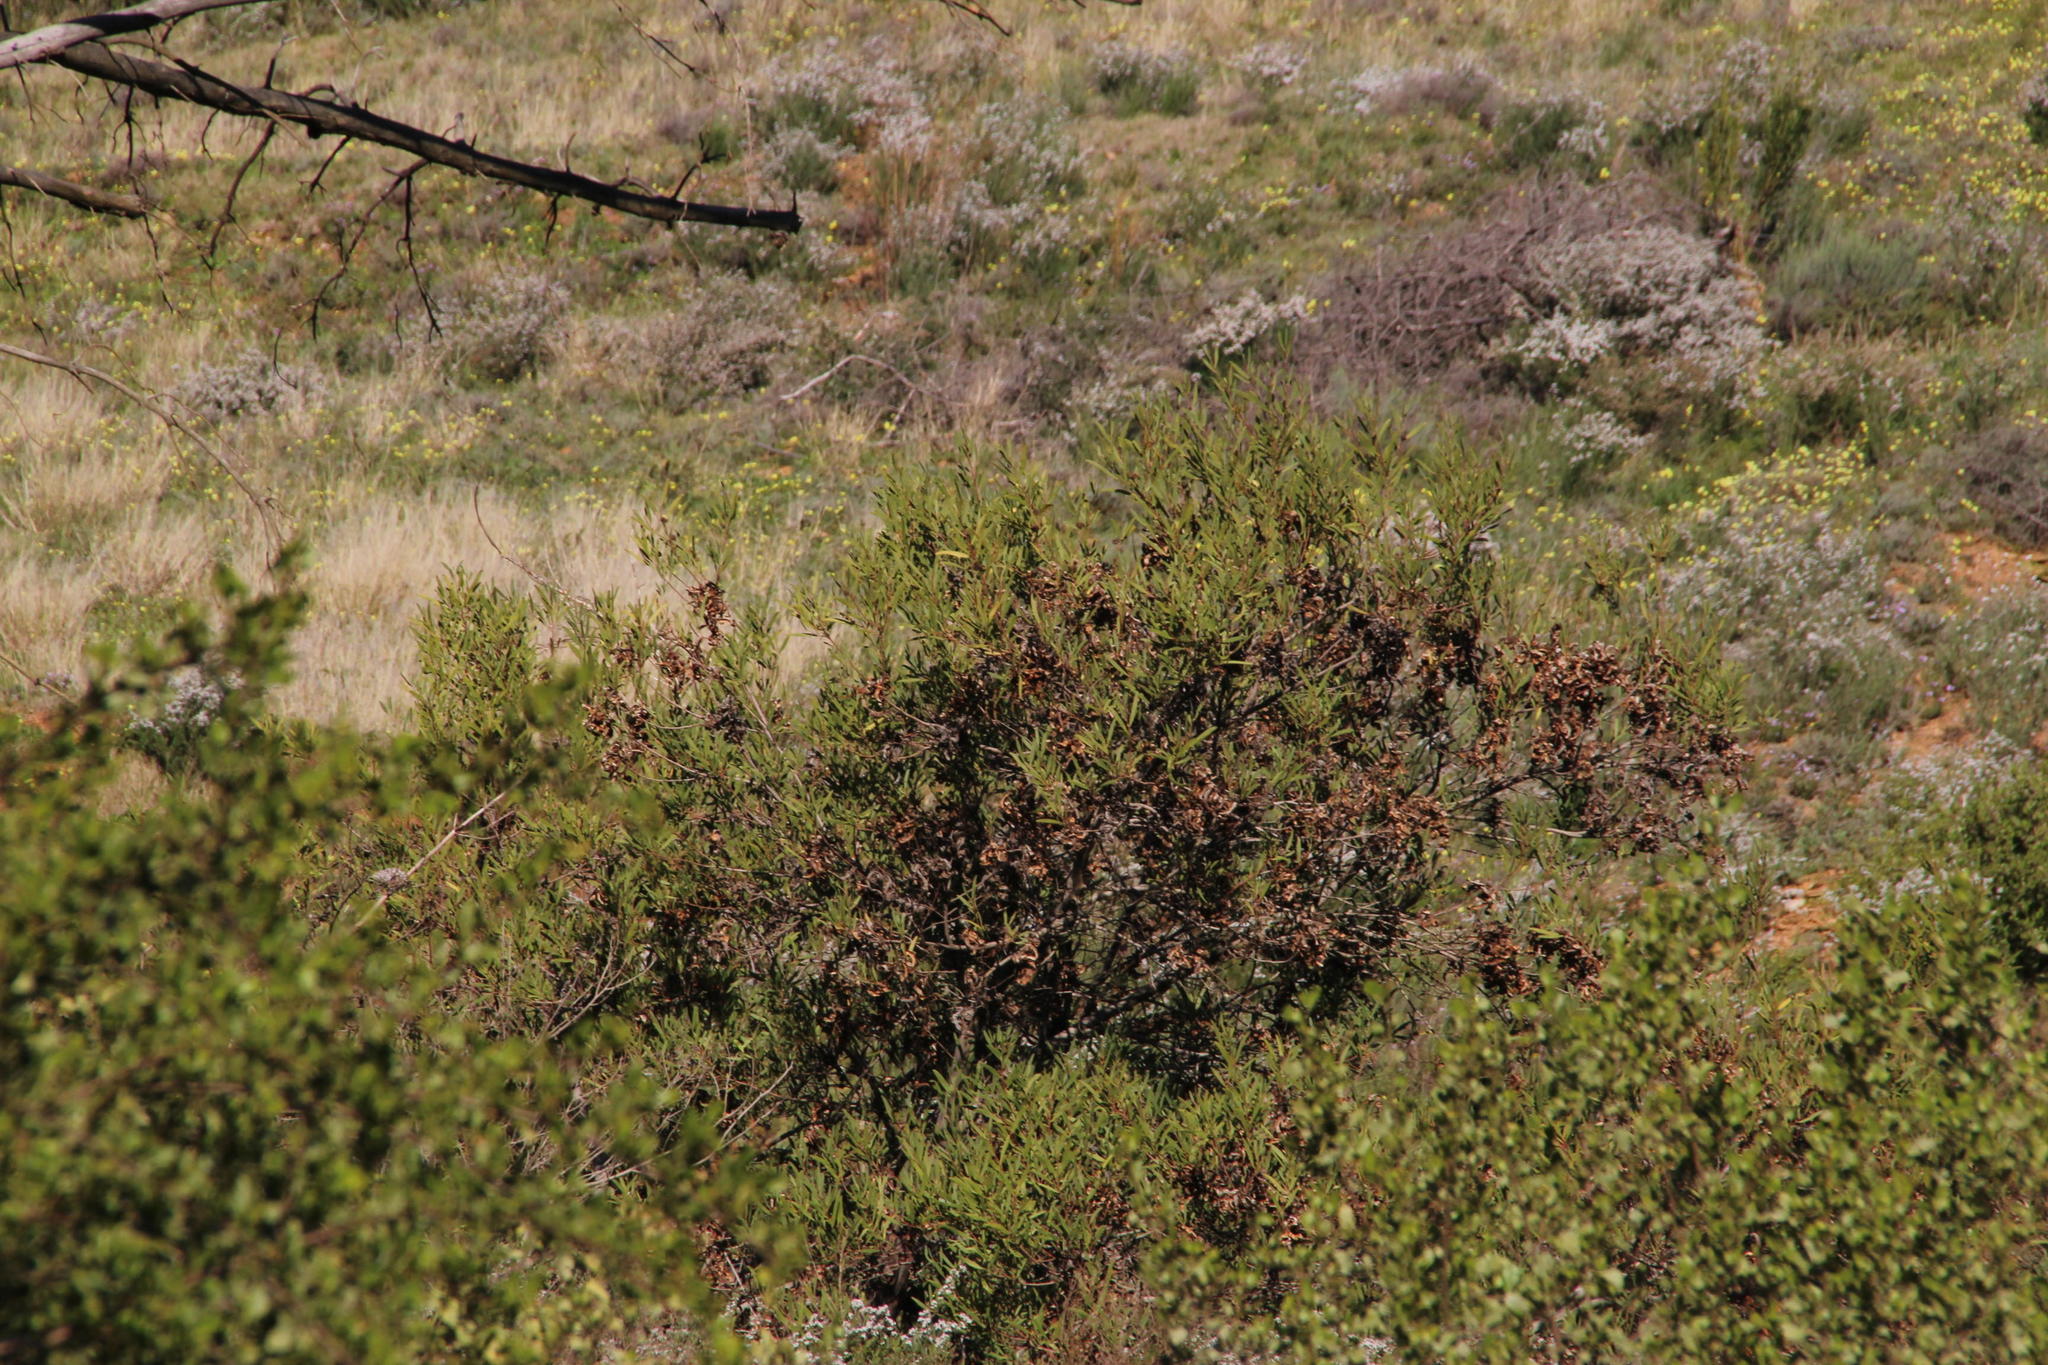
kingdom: Plantae
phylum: Tracheophyta
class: Magnoliopsida
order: Fabales
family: Fabaceae
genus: Acacia
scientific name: Acacia cyclops
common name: Coastal wattle
